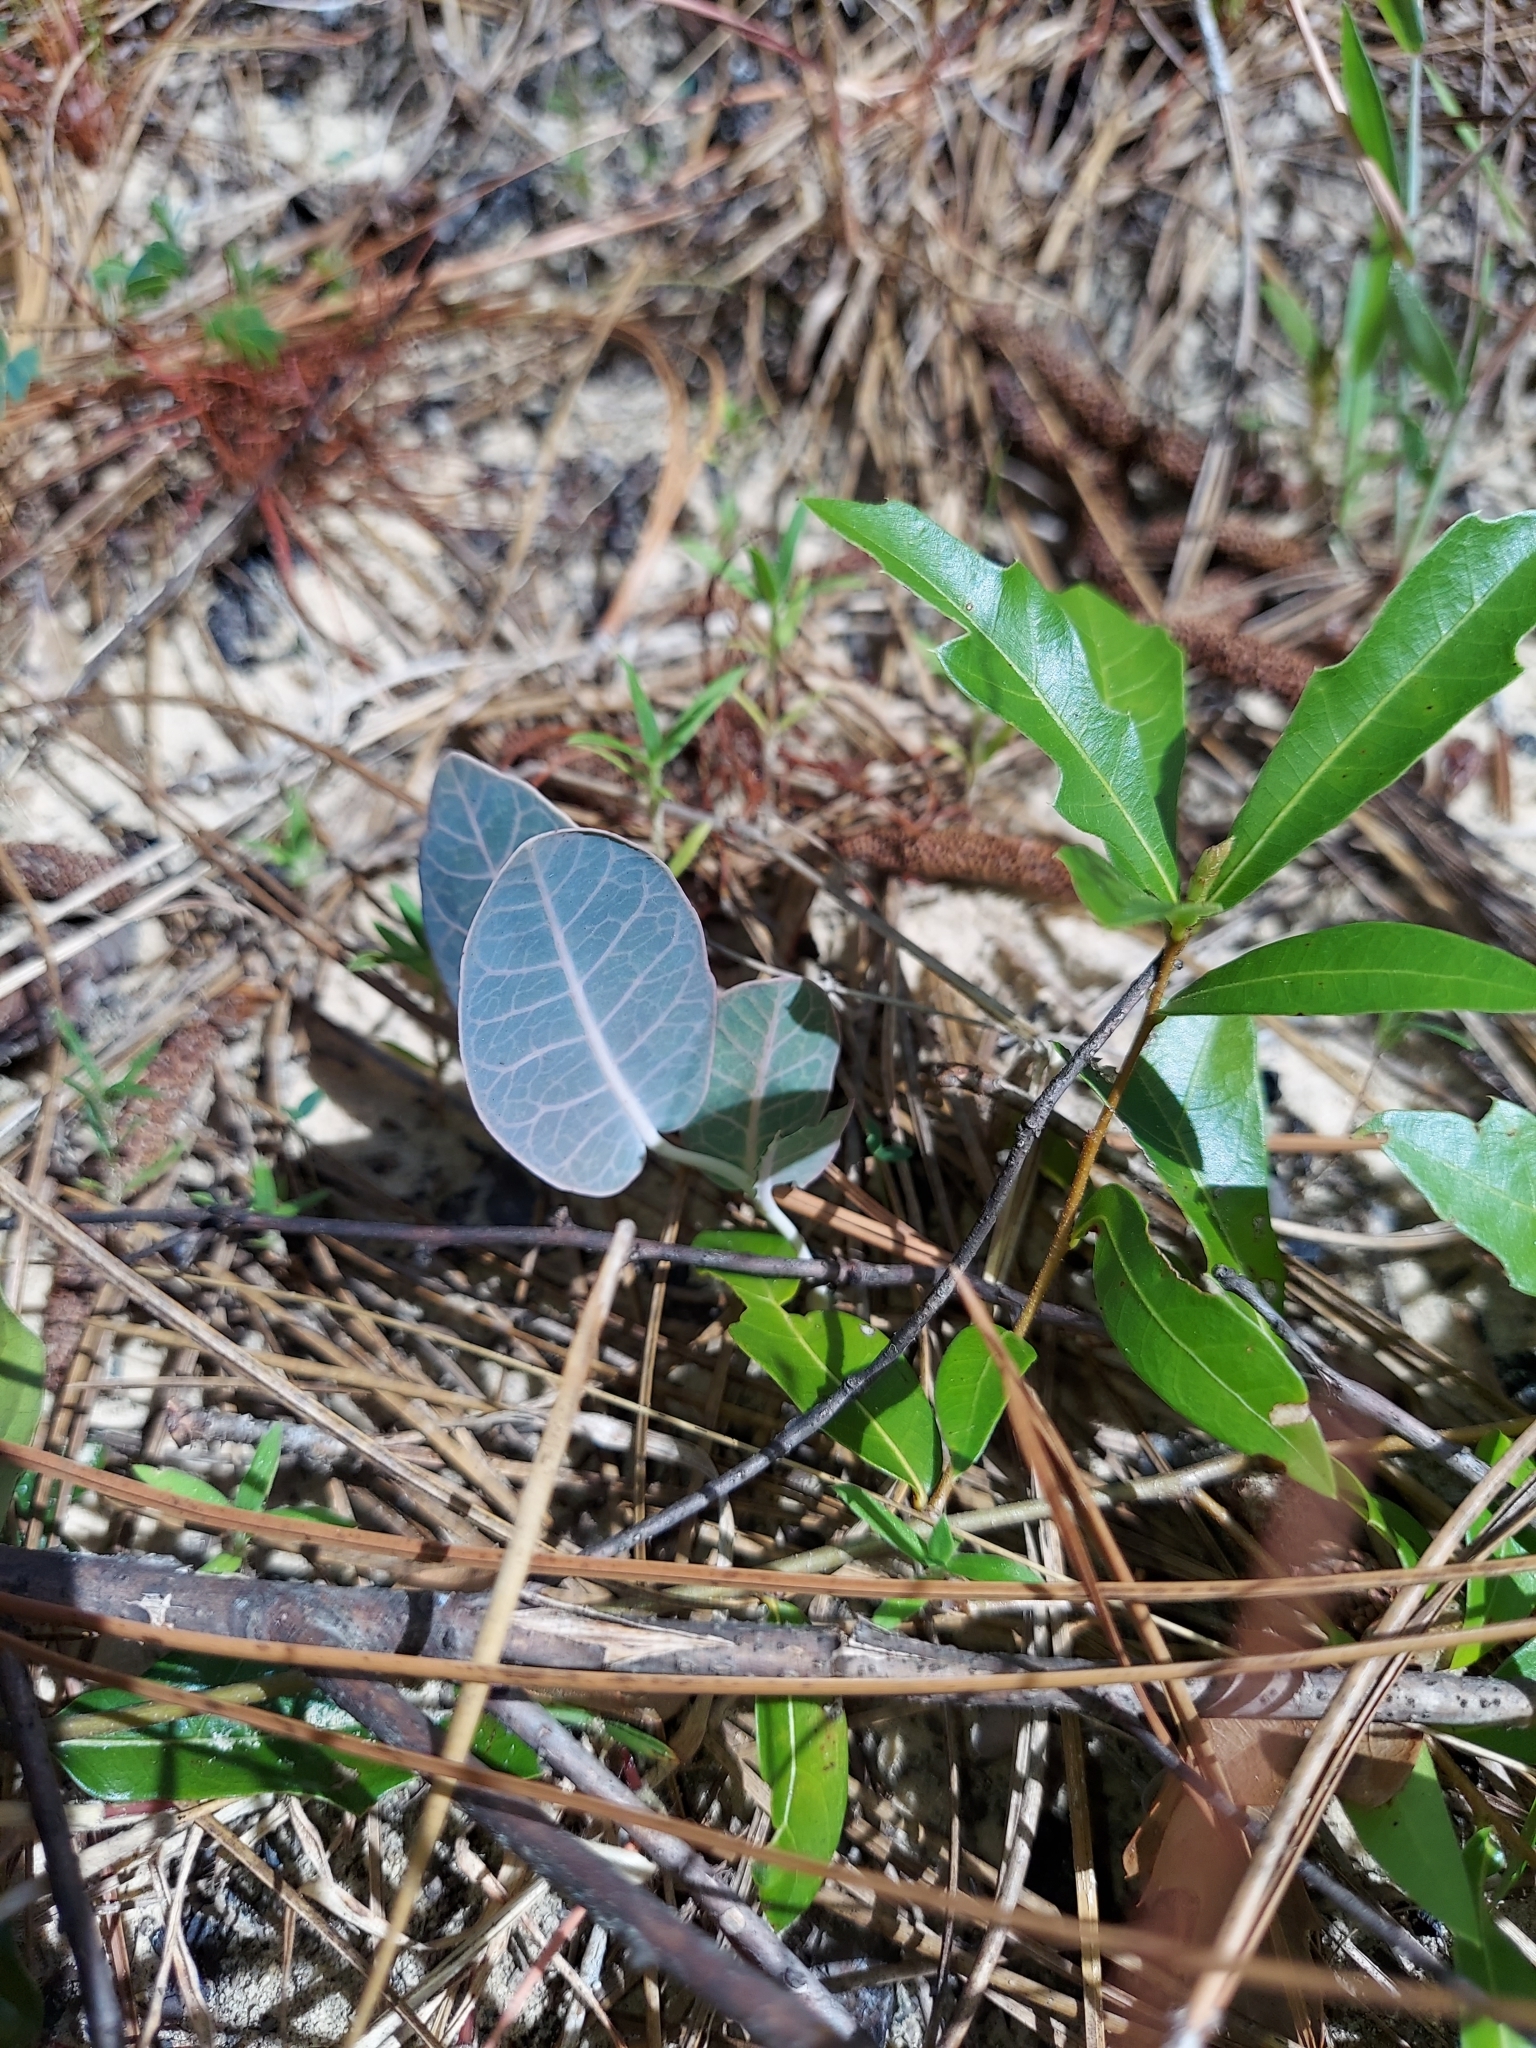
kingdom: Plantae
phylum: Tracheophyta
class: Magnoliopsida
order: Gentianales
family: Apocynaceae
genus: Asclepias
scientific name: Asclepias humistrata
